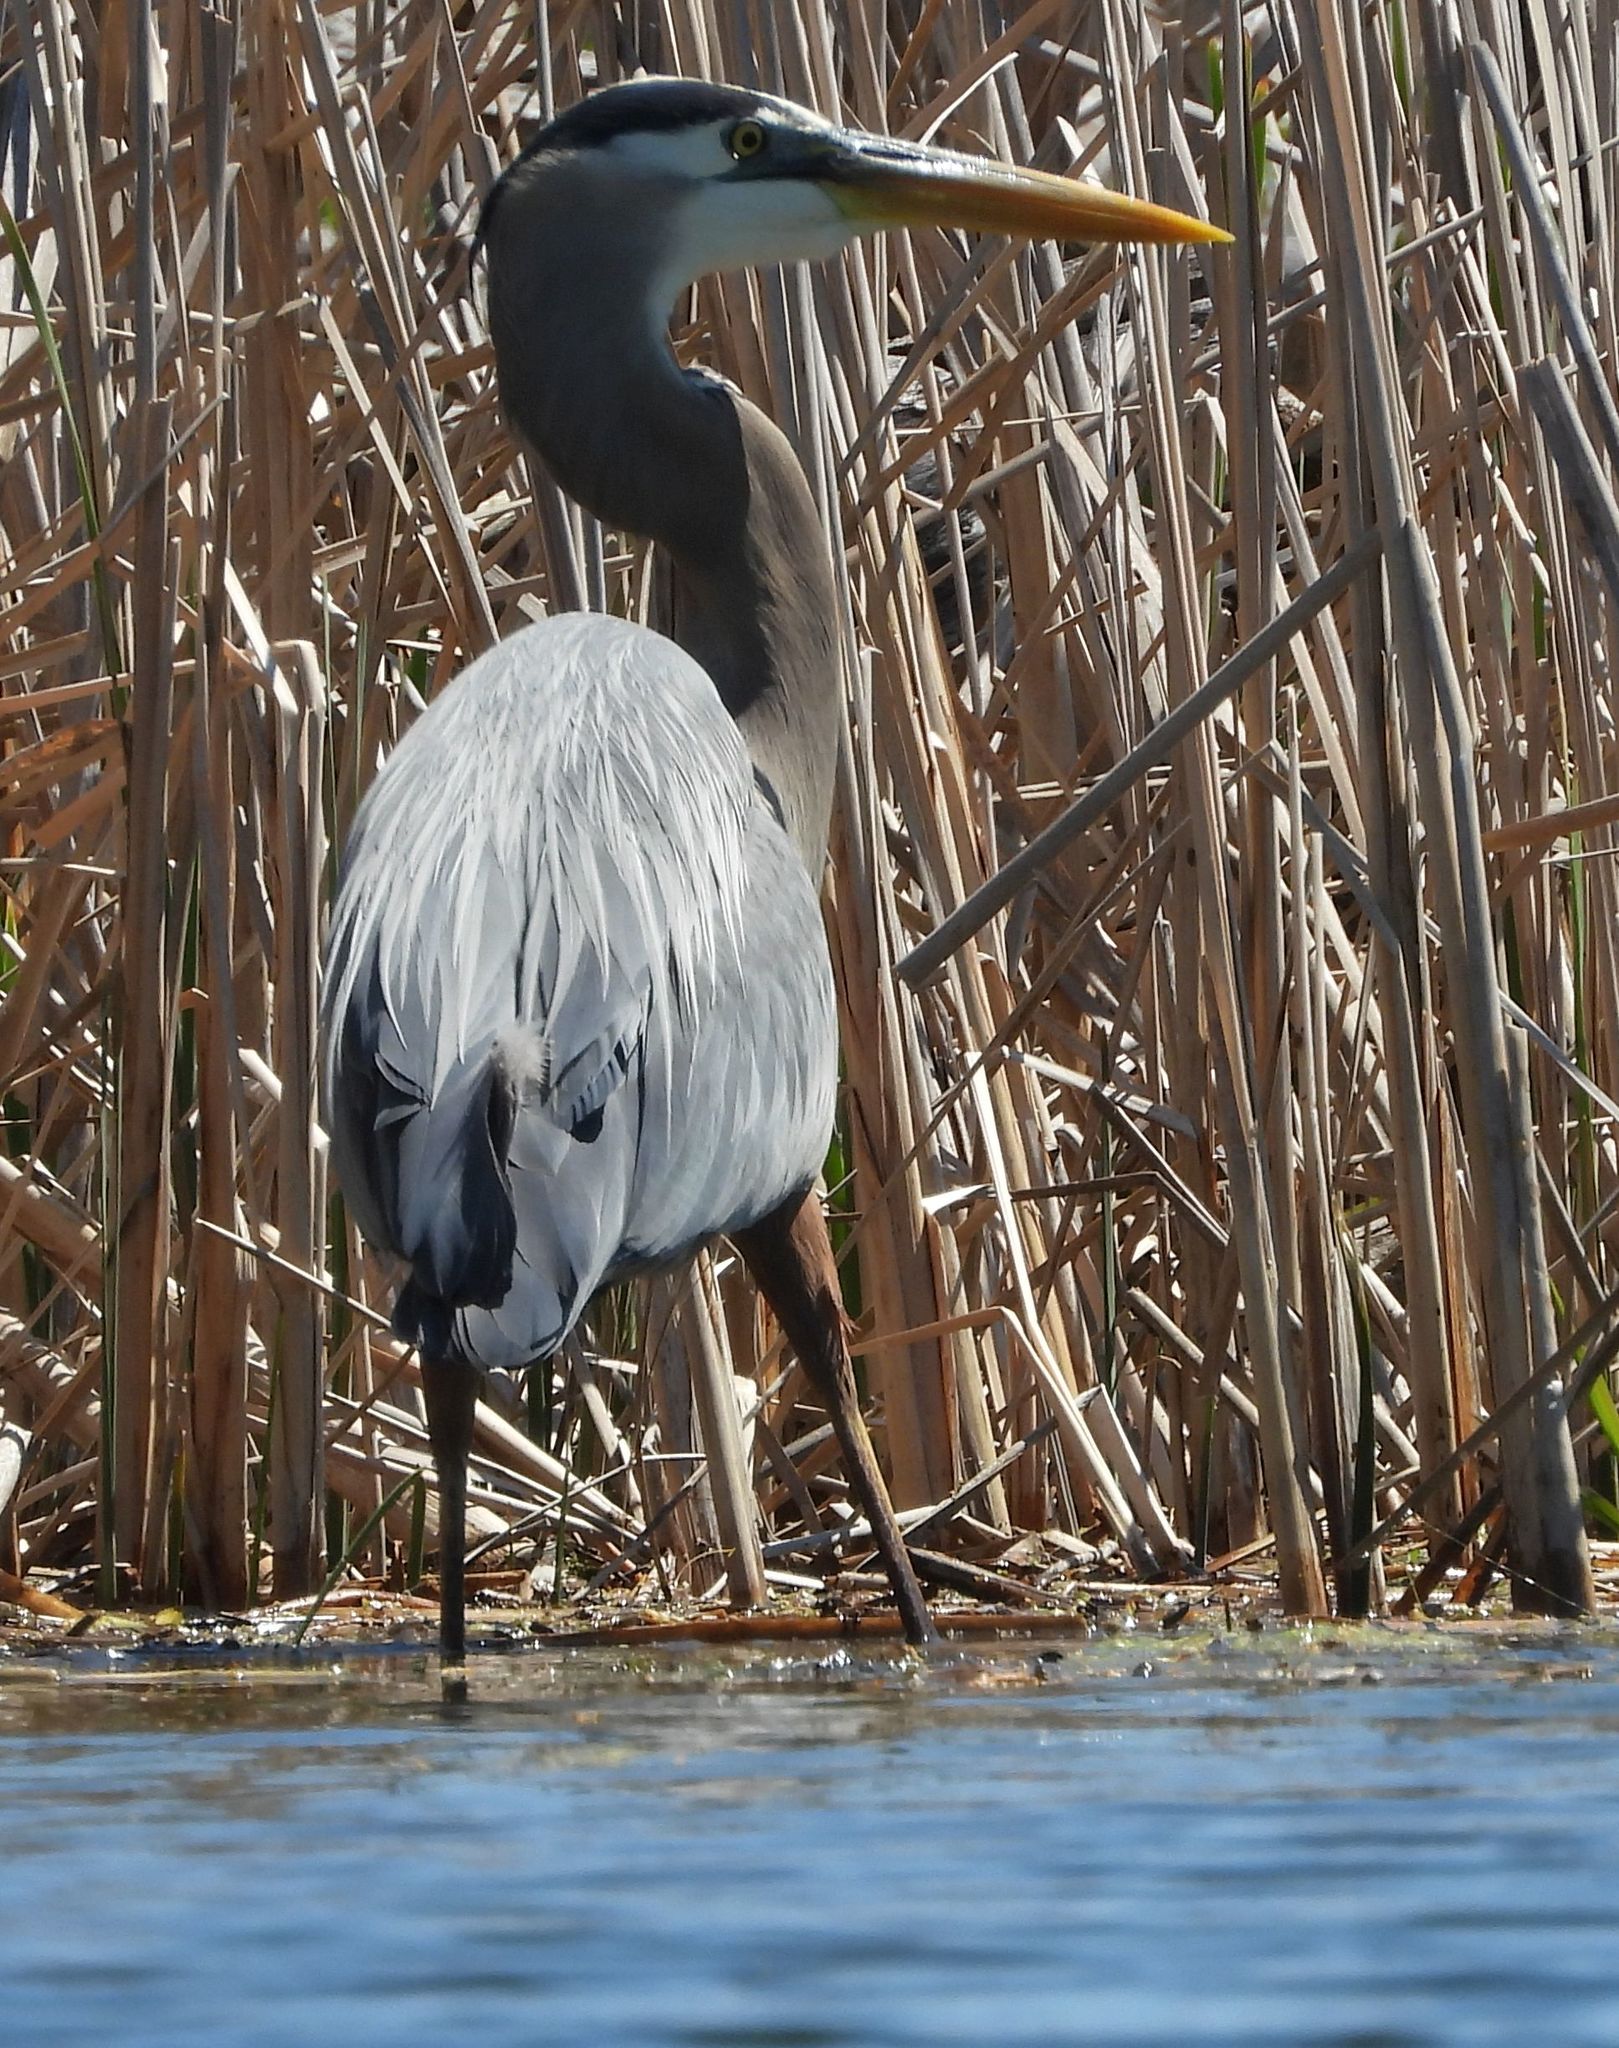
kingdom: Animalia
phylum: Chordata
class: Aves
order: Pelecaniformes
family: Ardeidae
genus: Ardea
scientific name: Ardea herodias
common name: Great blue heron
